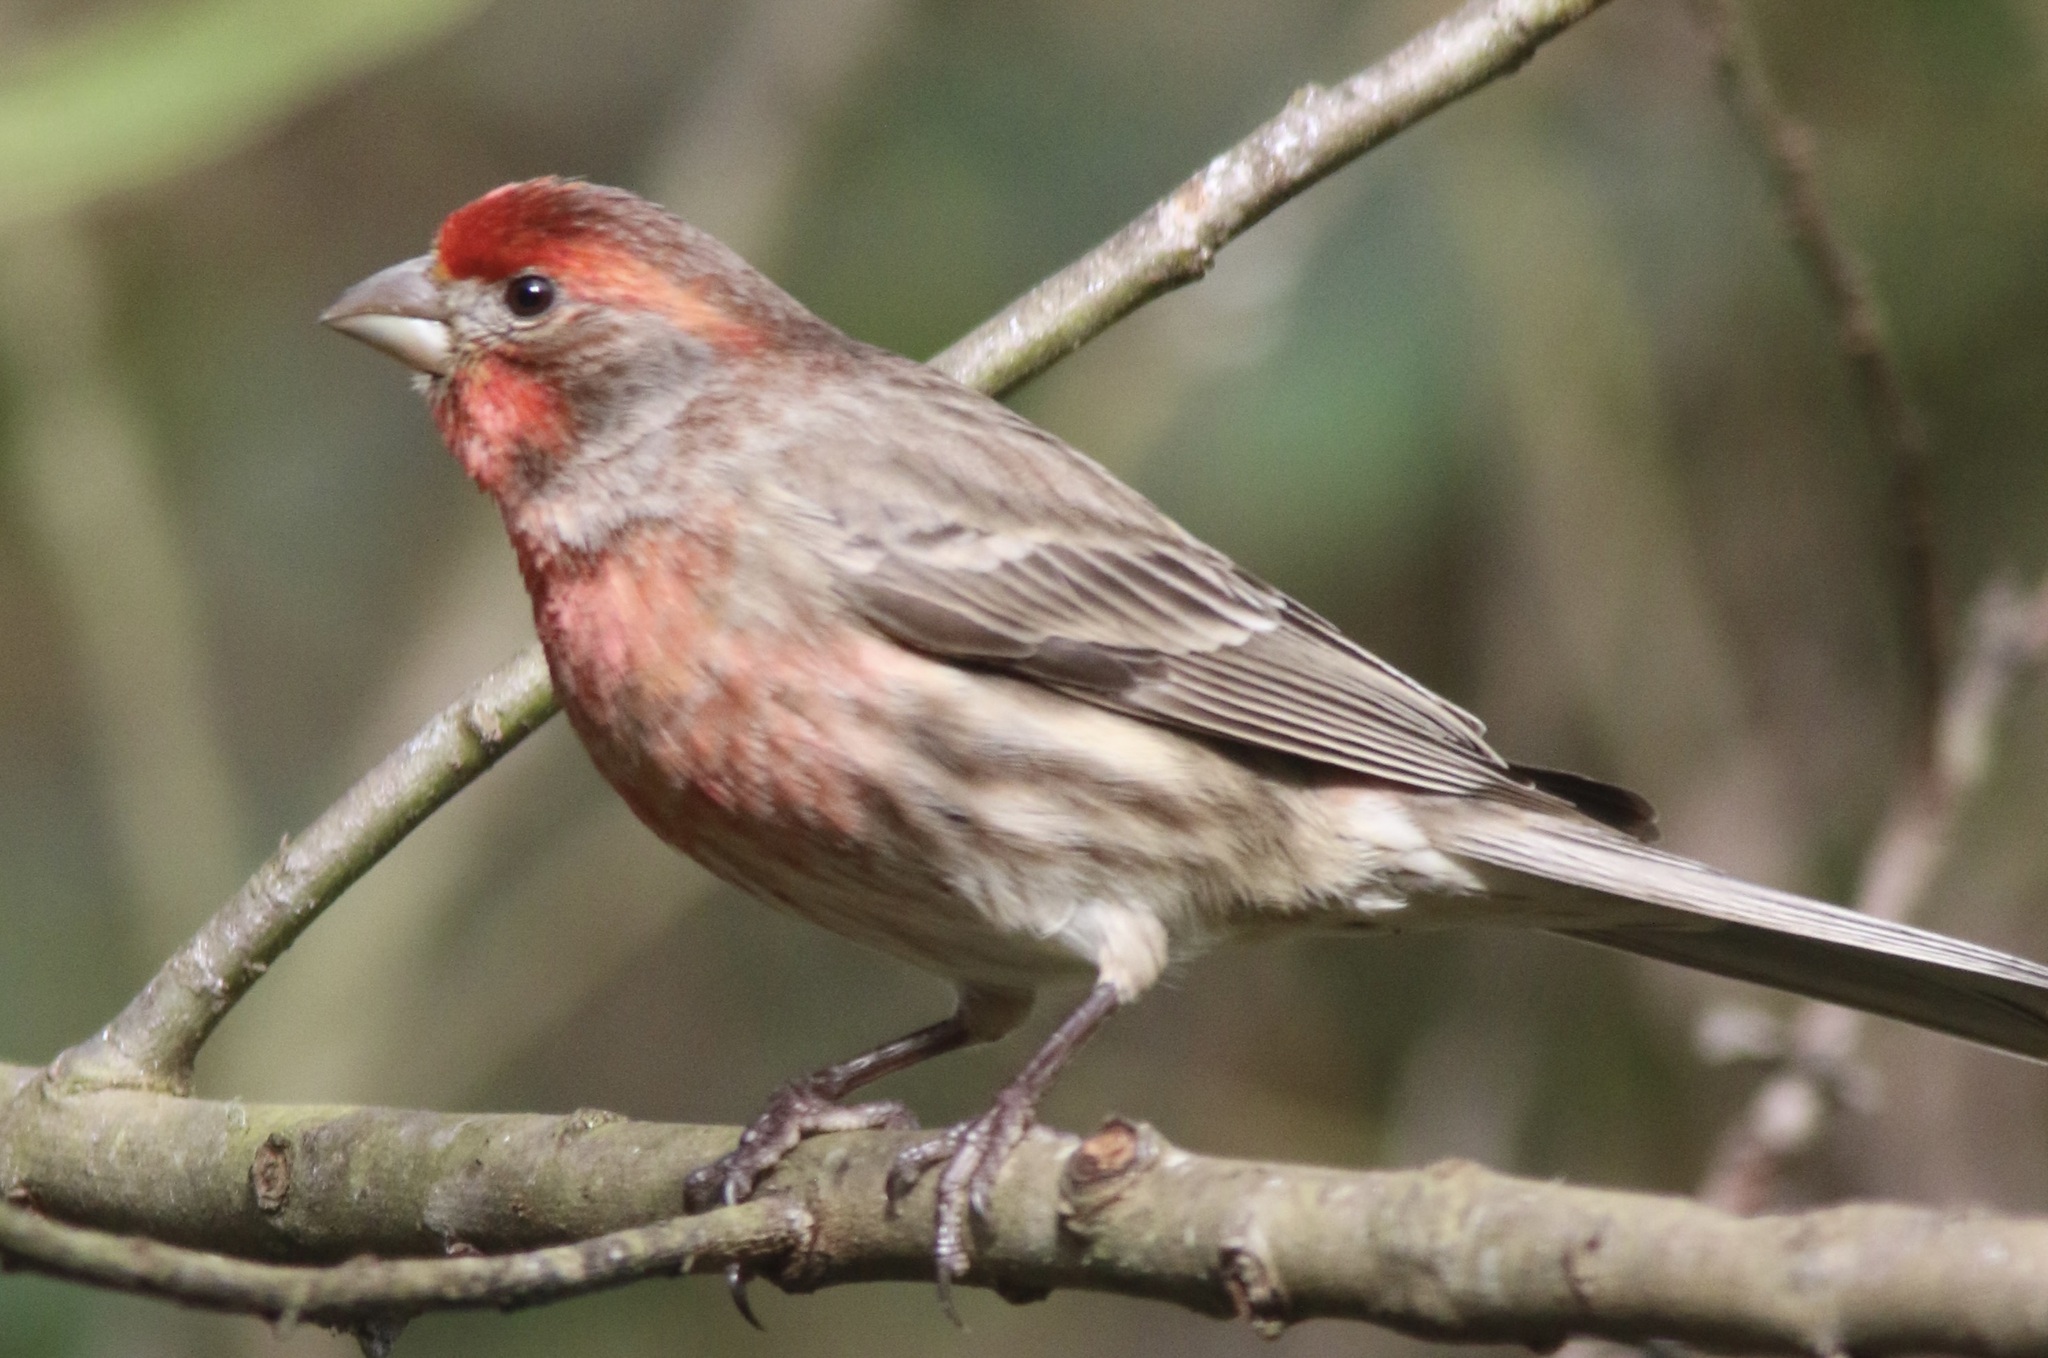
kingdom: Animalia
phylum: Chordata
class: Aves
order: Passeriformes
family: Fringillidae
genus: Haemorhous
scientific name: Haemorhous mexicanus
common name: House finch
